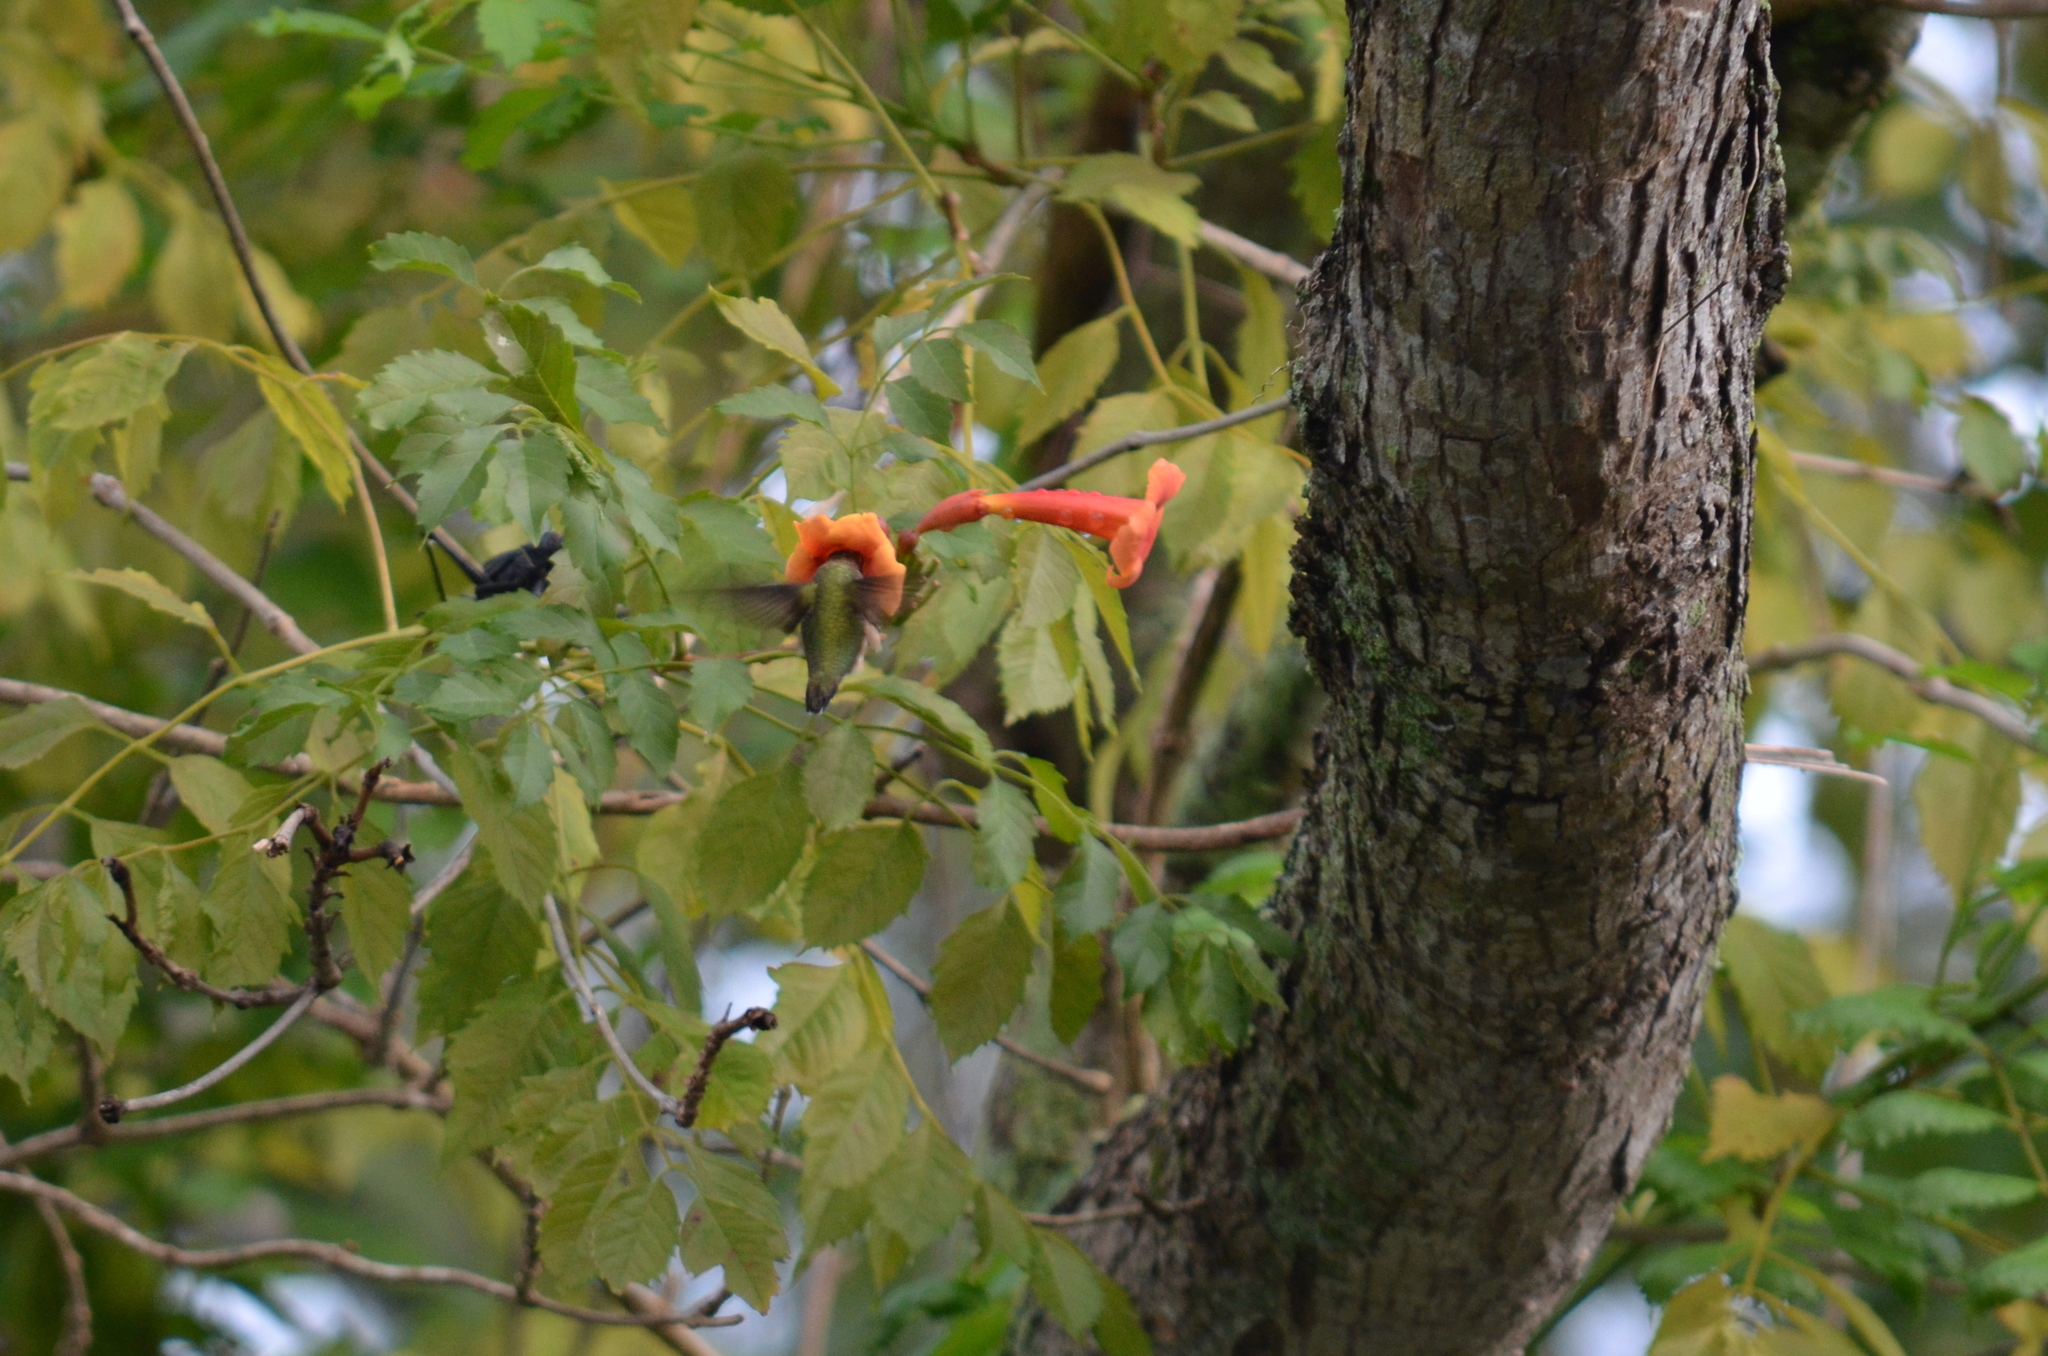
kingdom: Animalia
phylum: Chordata
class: Aves
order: Apodiformes
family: Trochilidae
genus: Archilochus
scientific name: Archilochus colubris
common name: Ruby-throated hummingbird
